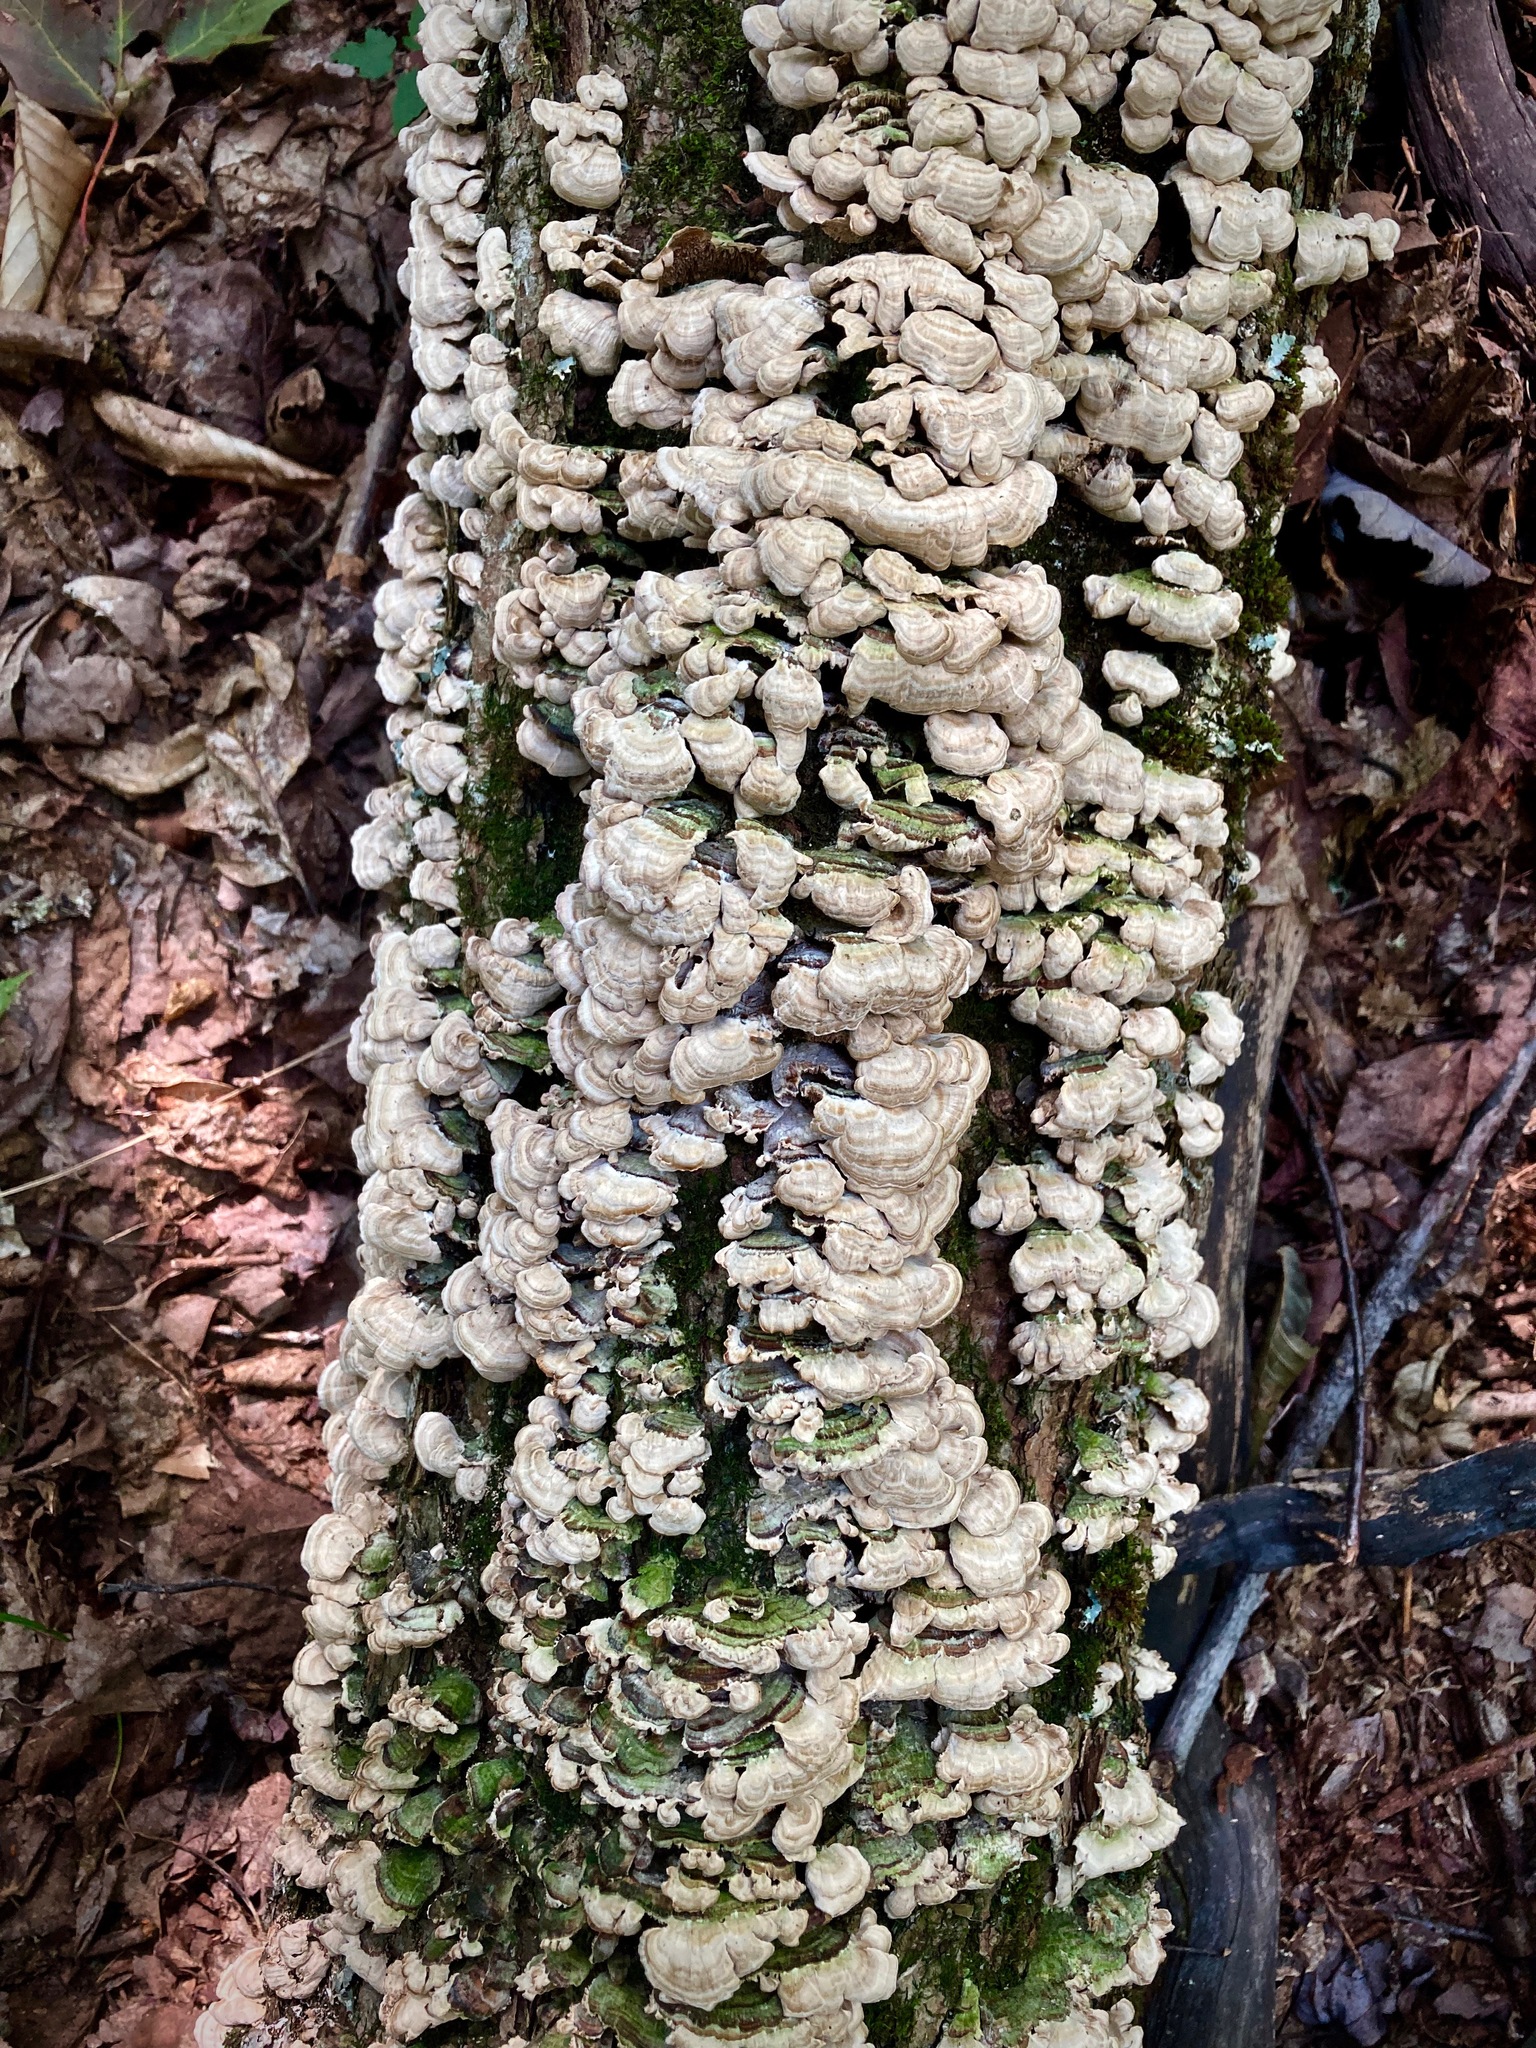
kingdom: Fungi
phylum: Basidiomycota
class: Agaricomycetes
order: Hymenochaetales
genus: Trichaptum
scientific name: Trichaptum biforme
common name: Violet-toothed polypore
